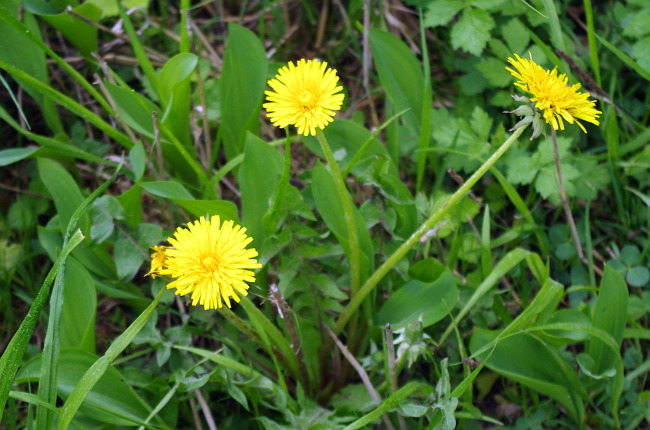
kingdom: Plantae
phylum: Tracheophyta
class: Magnoliopsida
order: Asterales
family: Asteraceae
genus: Taraxacum
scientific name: Taraxacum officinale
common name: Common dandelion
